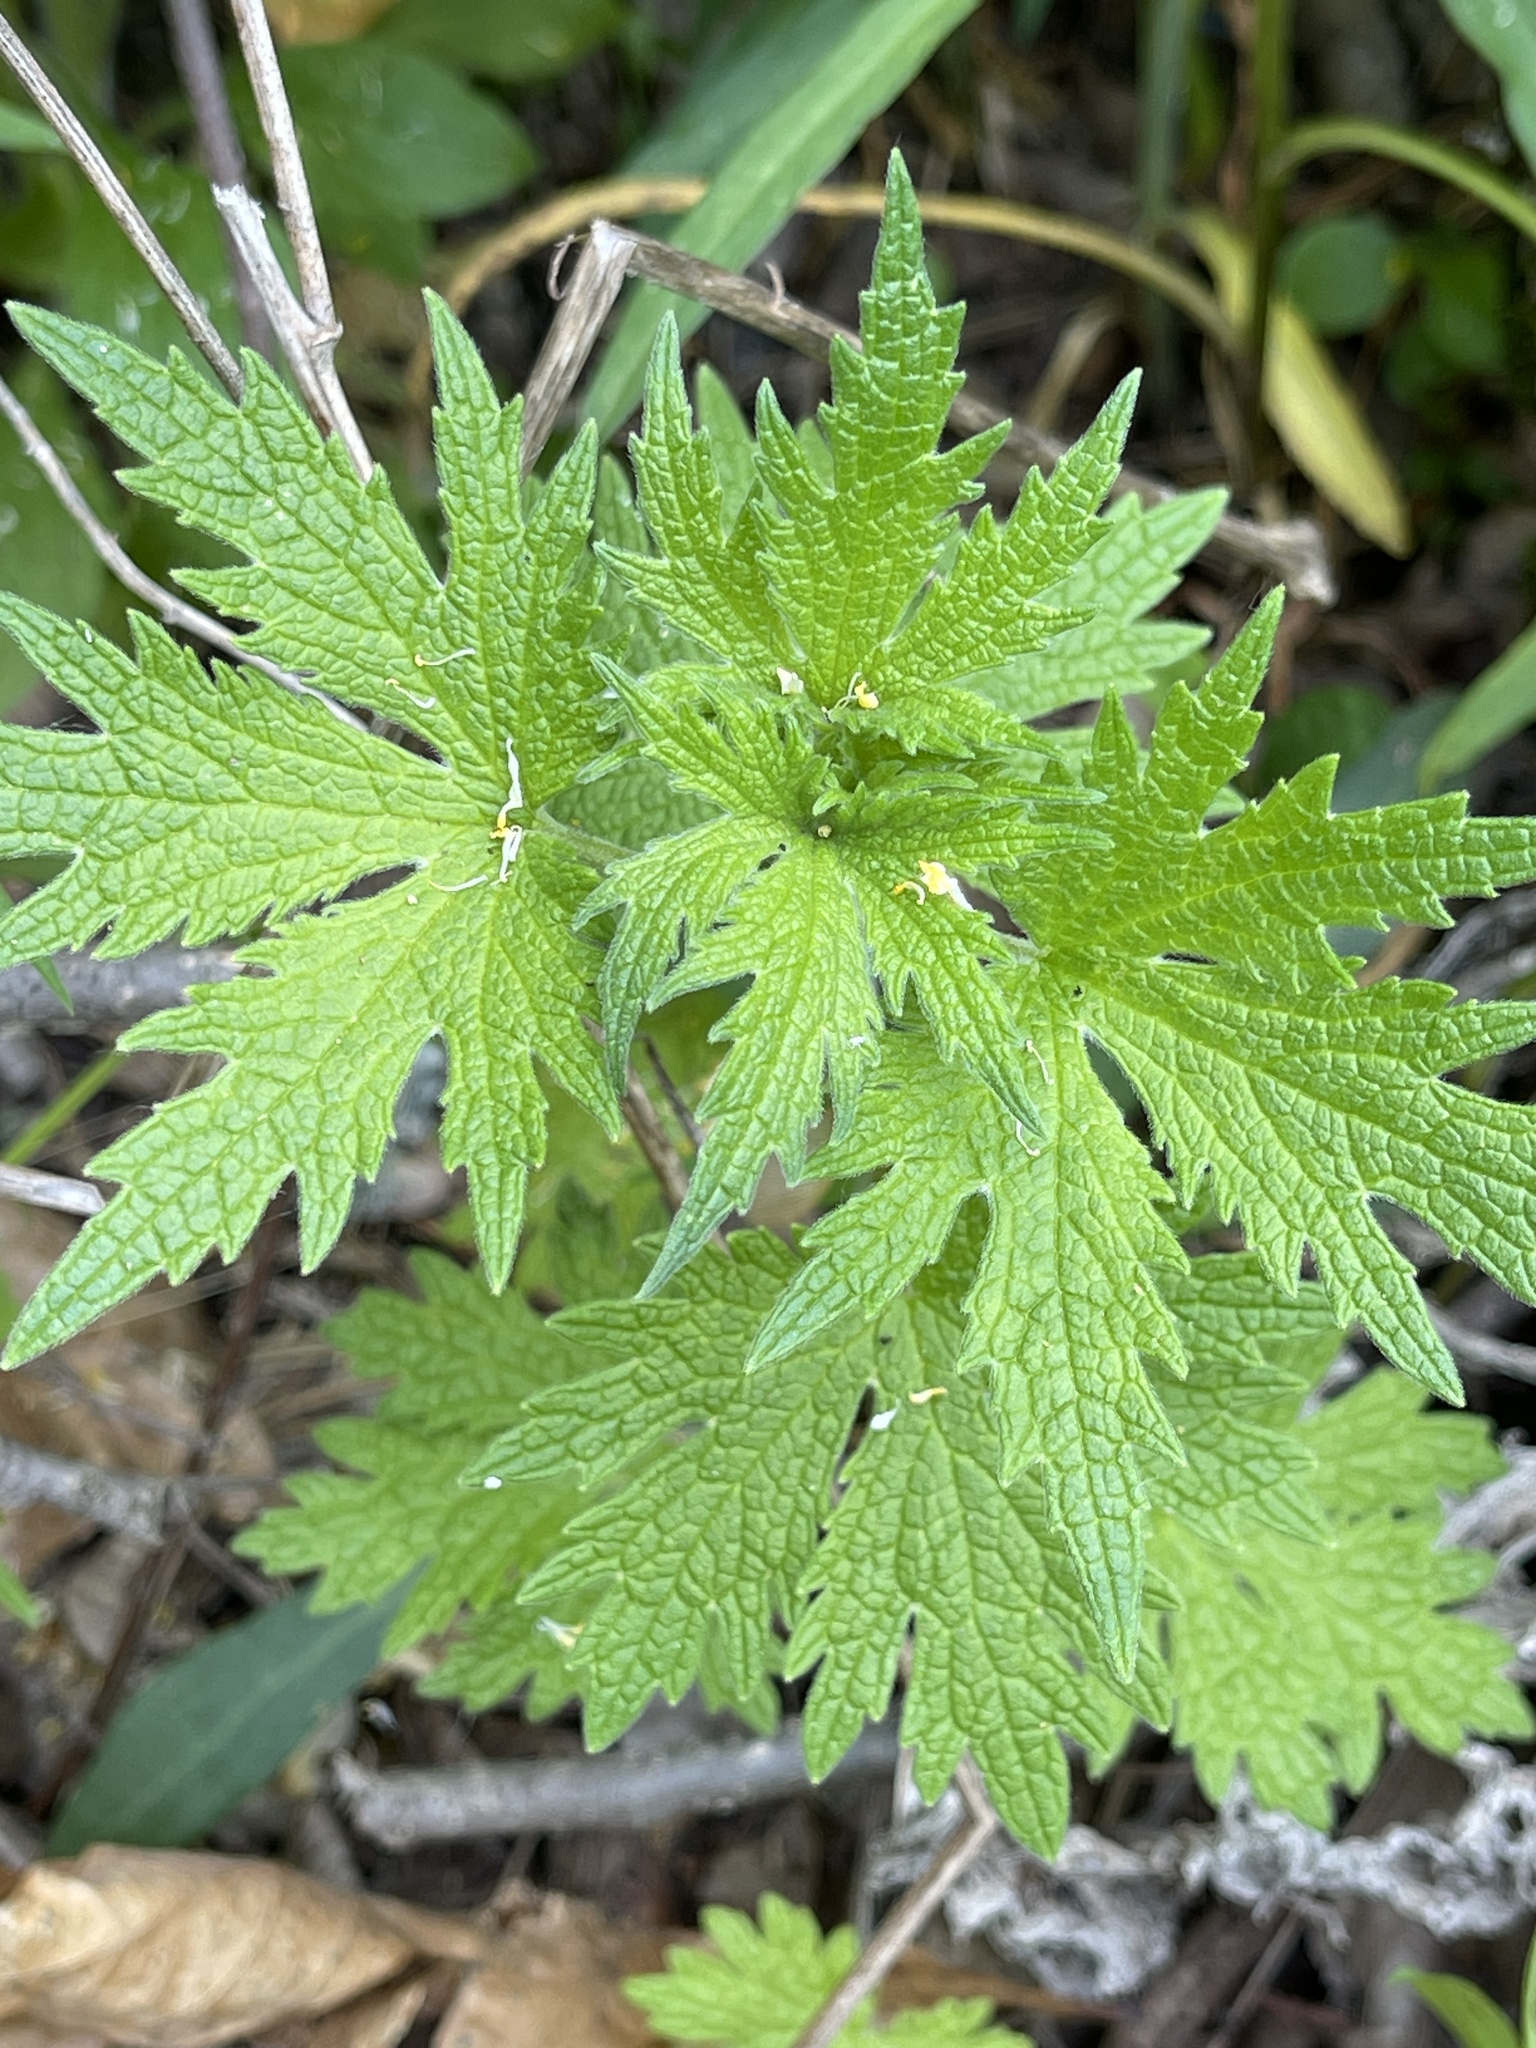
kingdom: Plantae
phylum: Tracheophyta
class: Magnoliopsida
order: Lamiales
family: Lamiaceae
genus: Leonurus
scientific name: Leonurus cardiaca
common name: Motherwort
